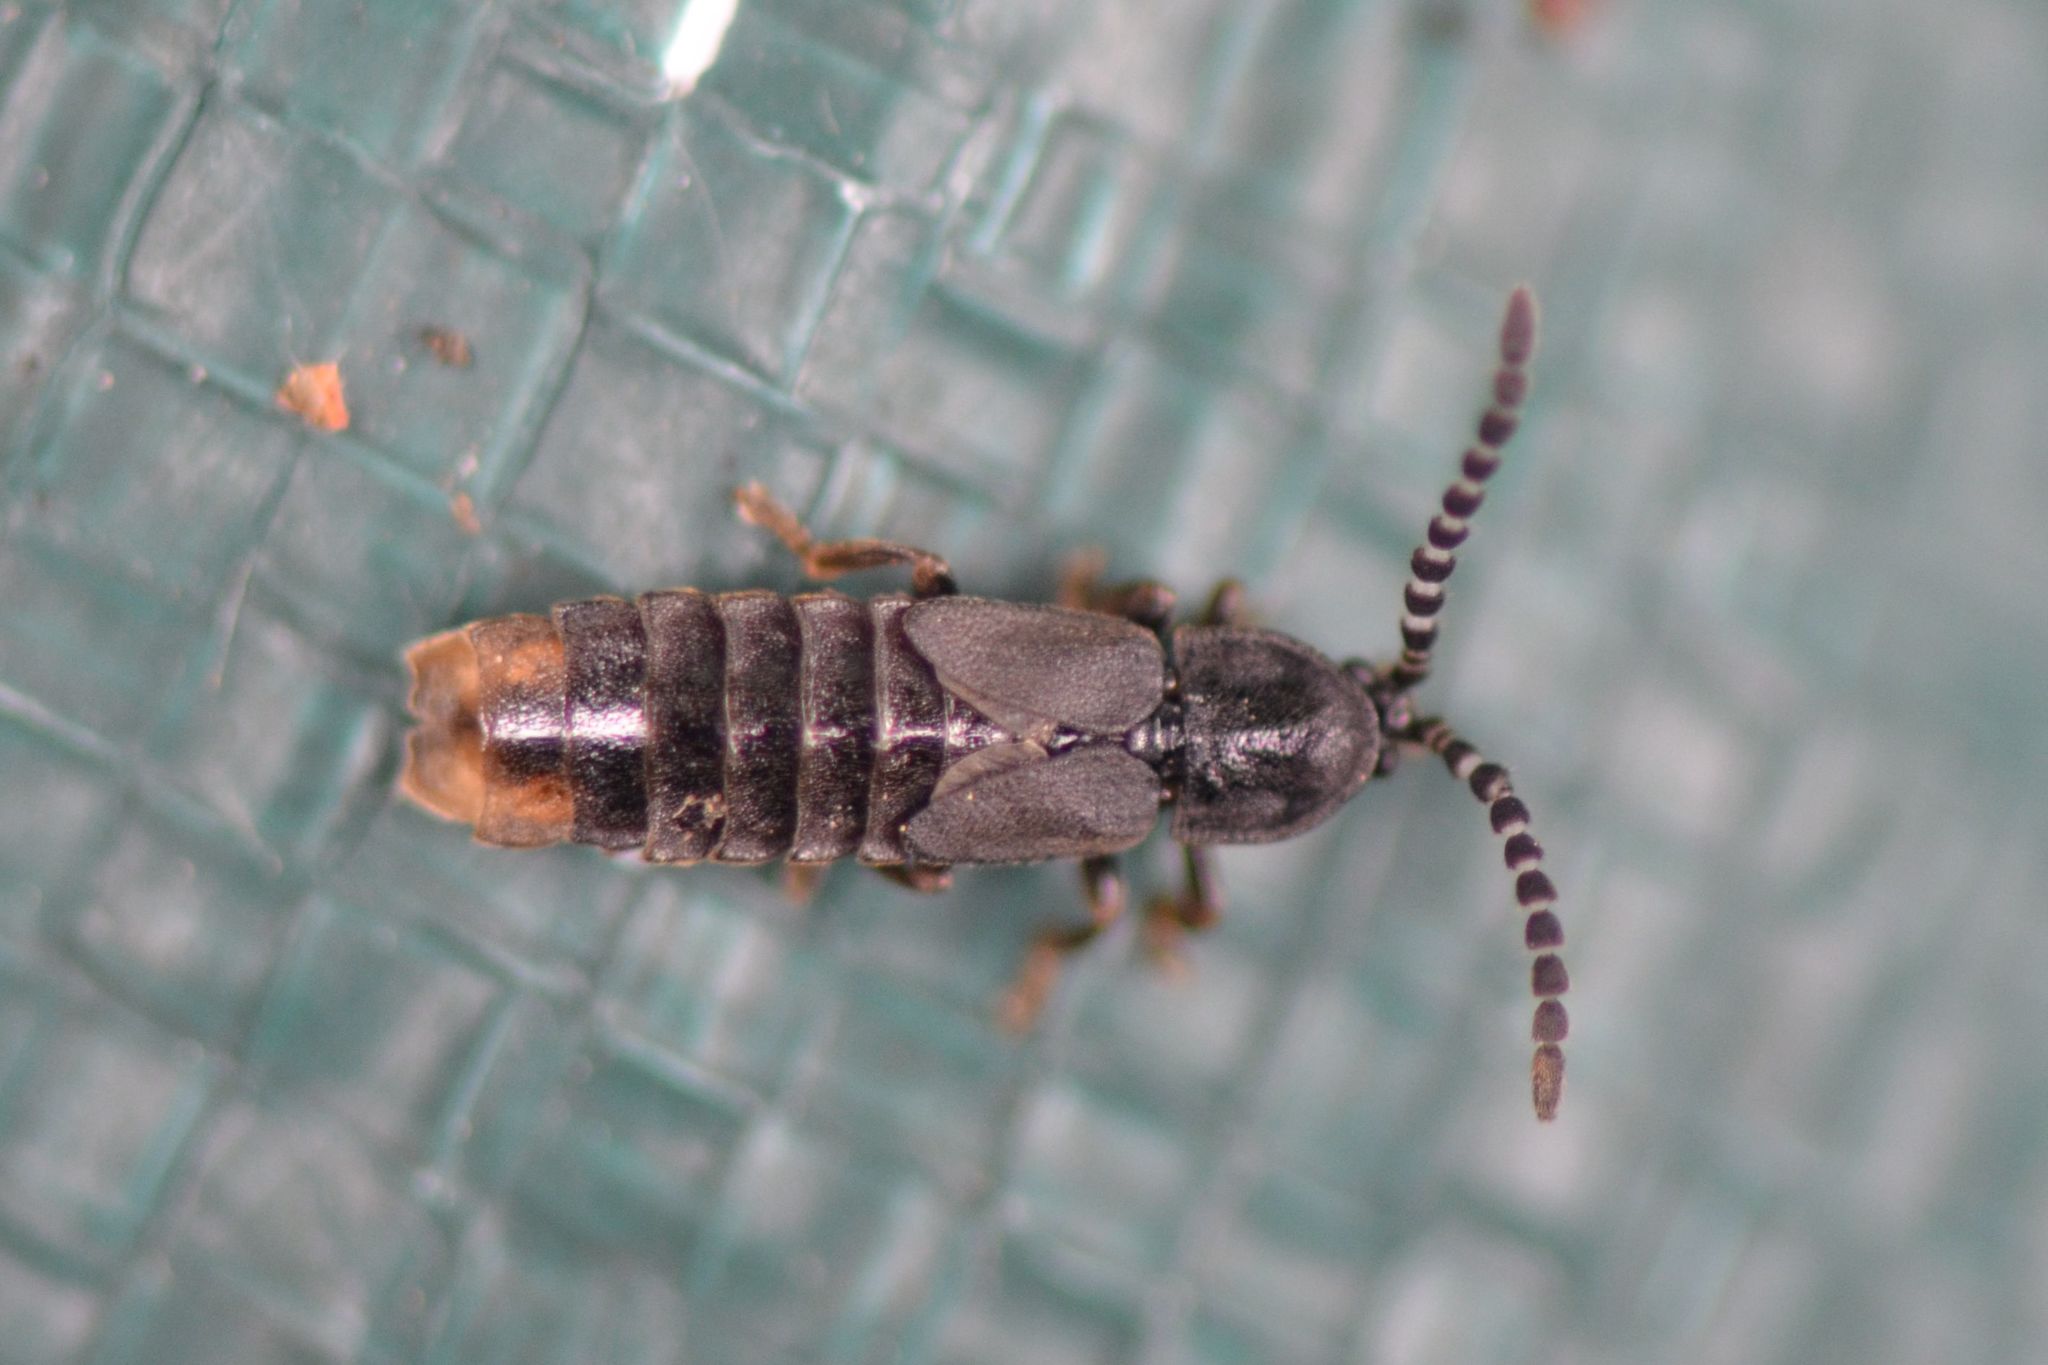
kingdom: Animalia
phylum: Arthropoda
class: Insecta
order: Coleoptera
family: Lampyridae
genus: Phosphaenus
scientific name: Phosphaenus hemipterus
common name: Short-winged firefly
